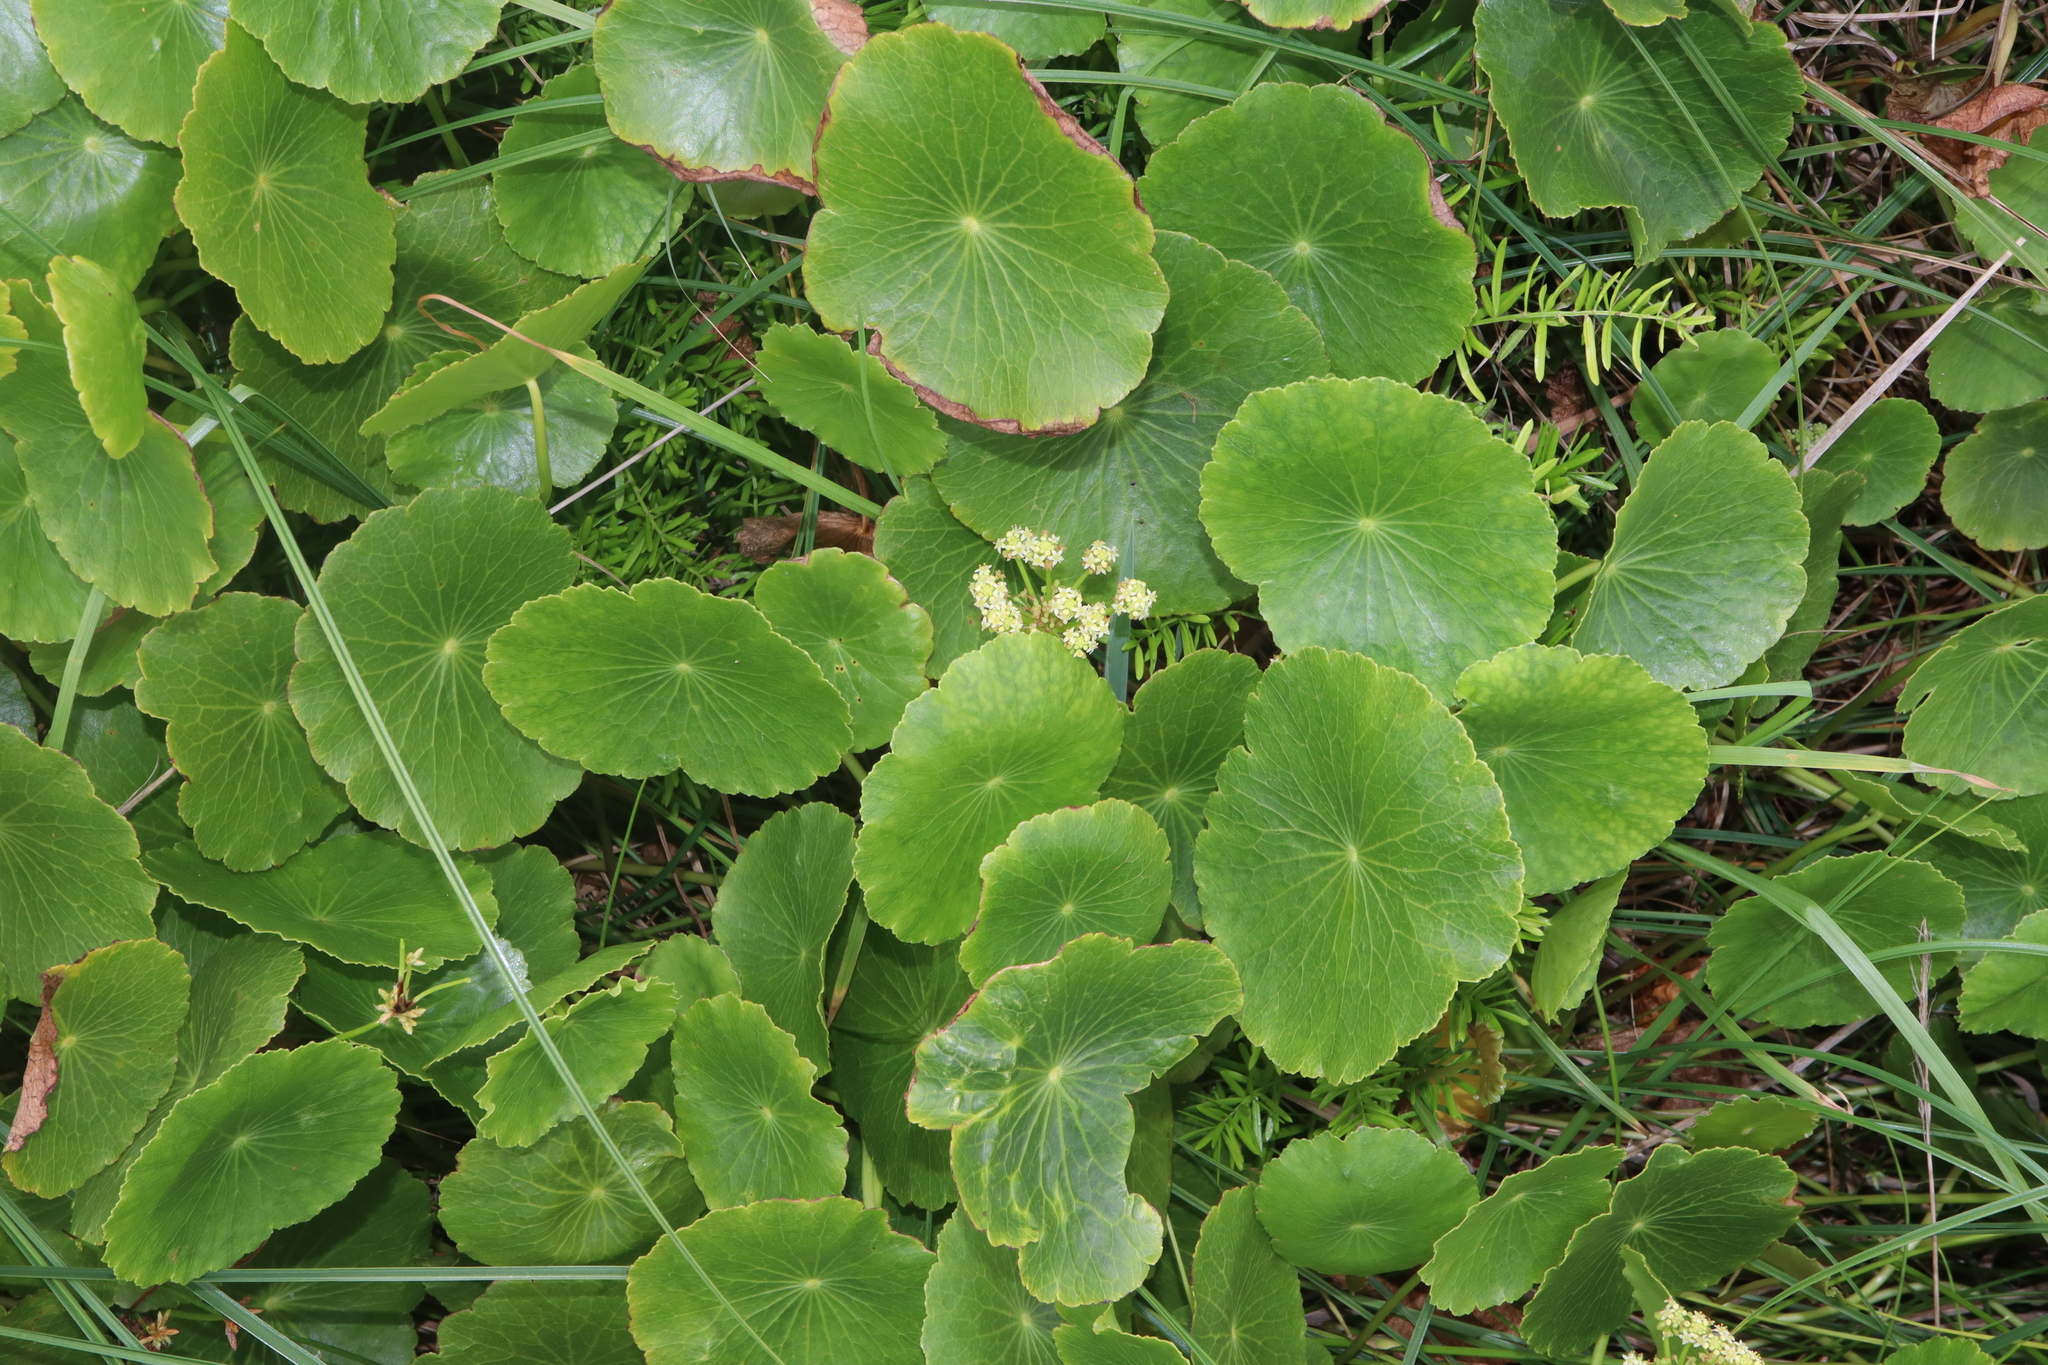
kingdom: Plantae
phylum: Tracheophyta
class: Magnoliopsida
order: Apiales
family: Araliaceae
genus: Hydrocotyle
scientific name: Hydrocotyle bonariensis
